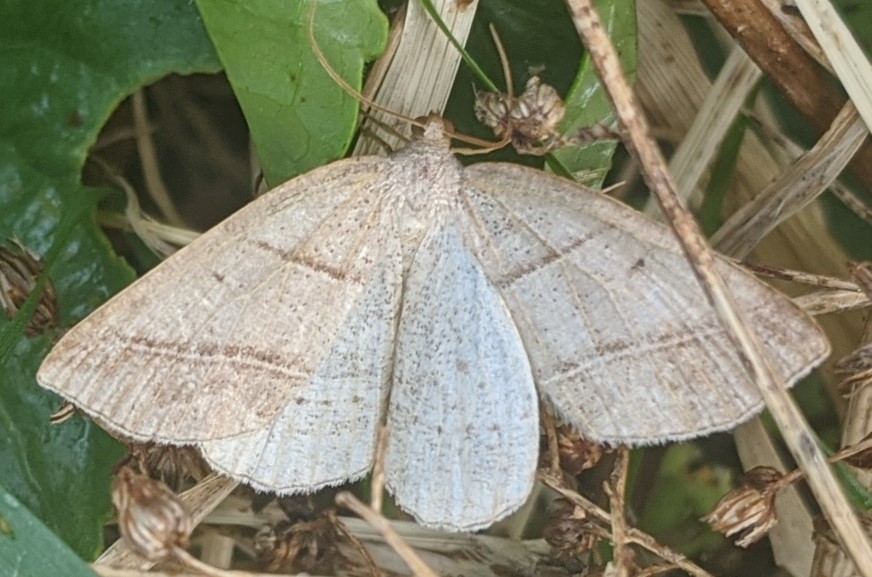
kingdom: Animalia
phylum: Arthropoda
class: Insecta
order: Lepidoptera
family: Pterophoridae
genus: Pterophorus
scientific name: Pterophorus Petrophora subaequaria
